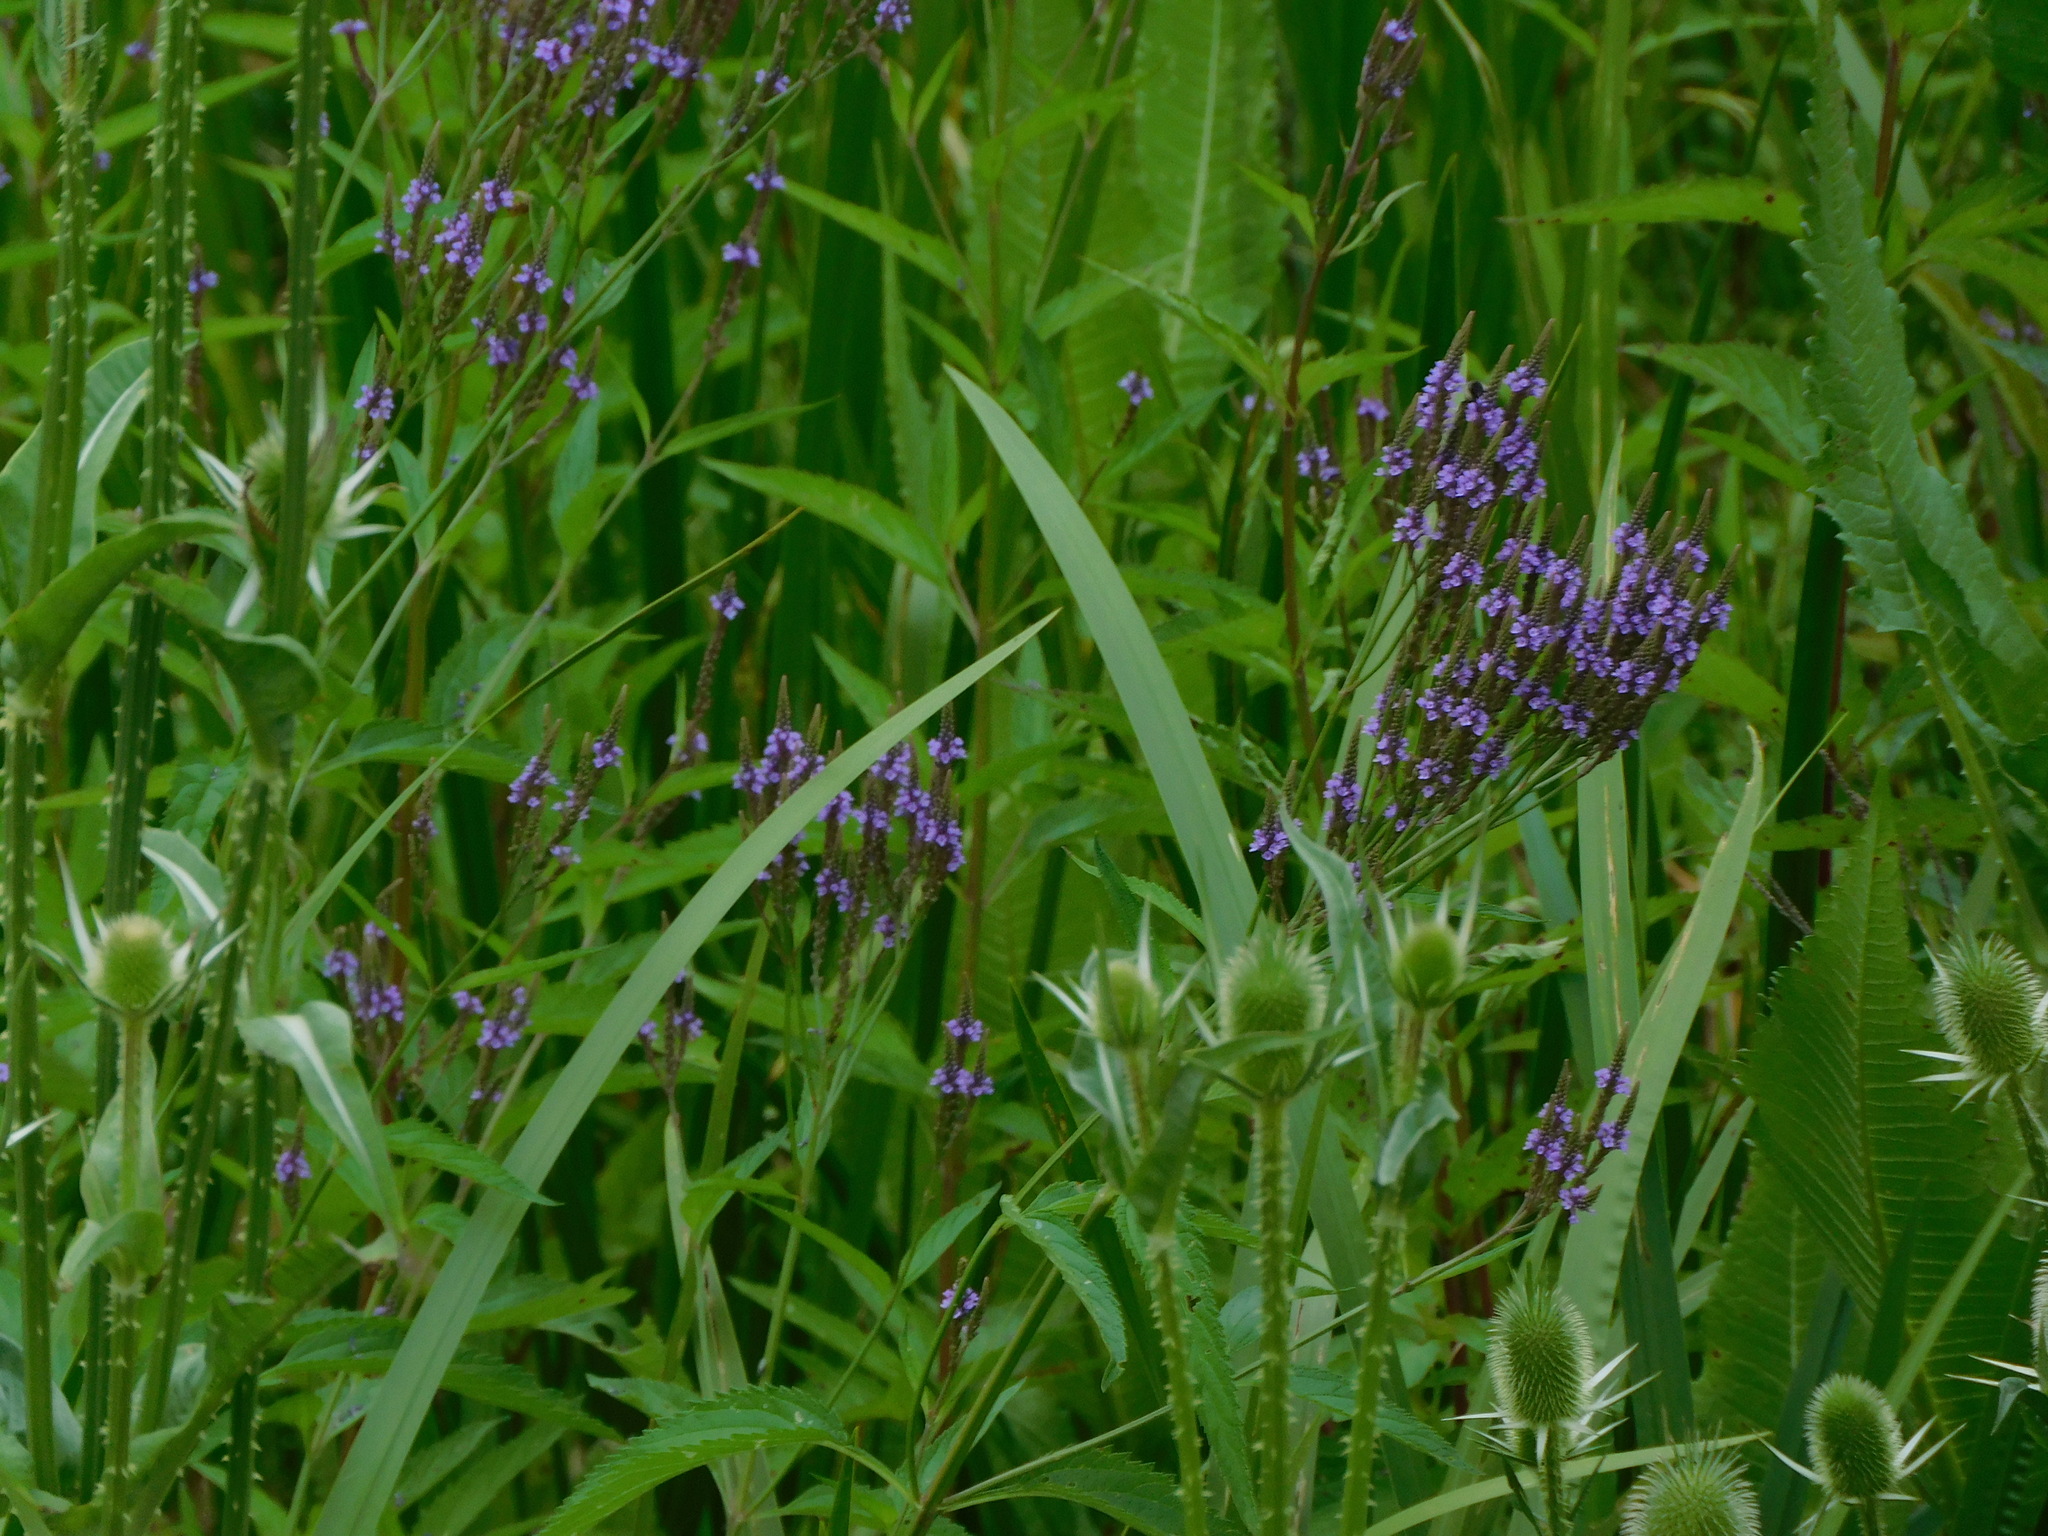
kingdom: Plantae
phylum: Tracheophyta
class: Magnoliopsida
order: Lamiales
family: Verbenaceae
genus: Verbena
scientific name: Verbena hastata
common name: American blue vervain
